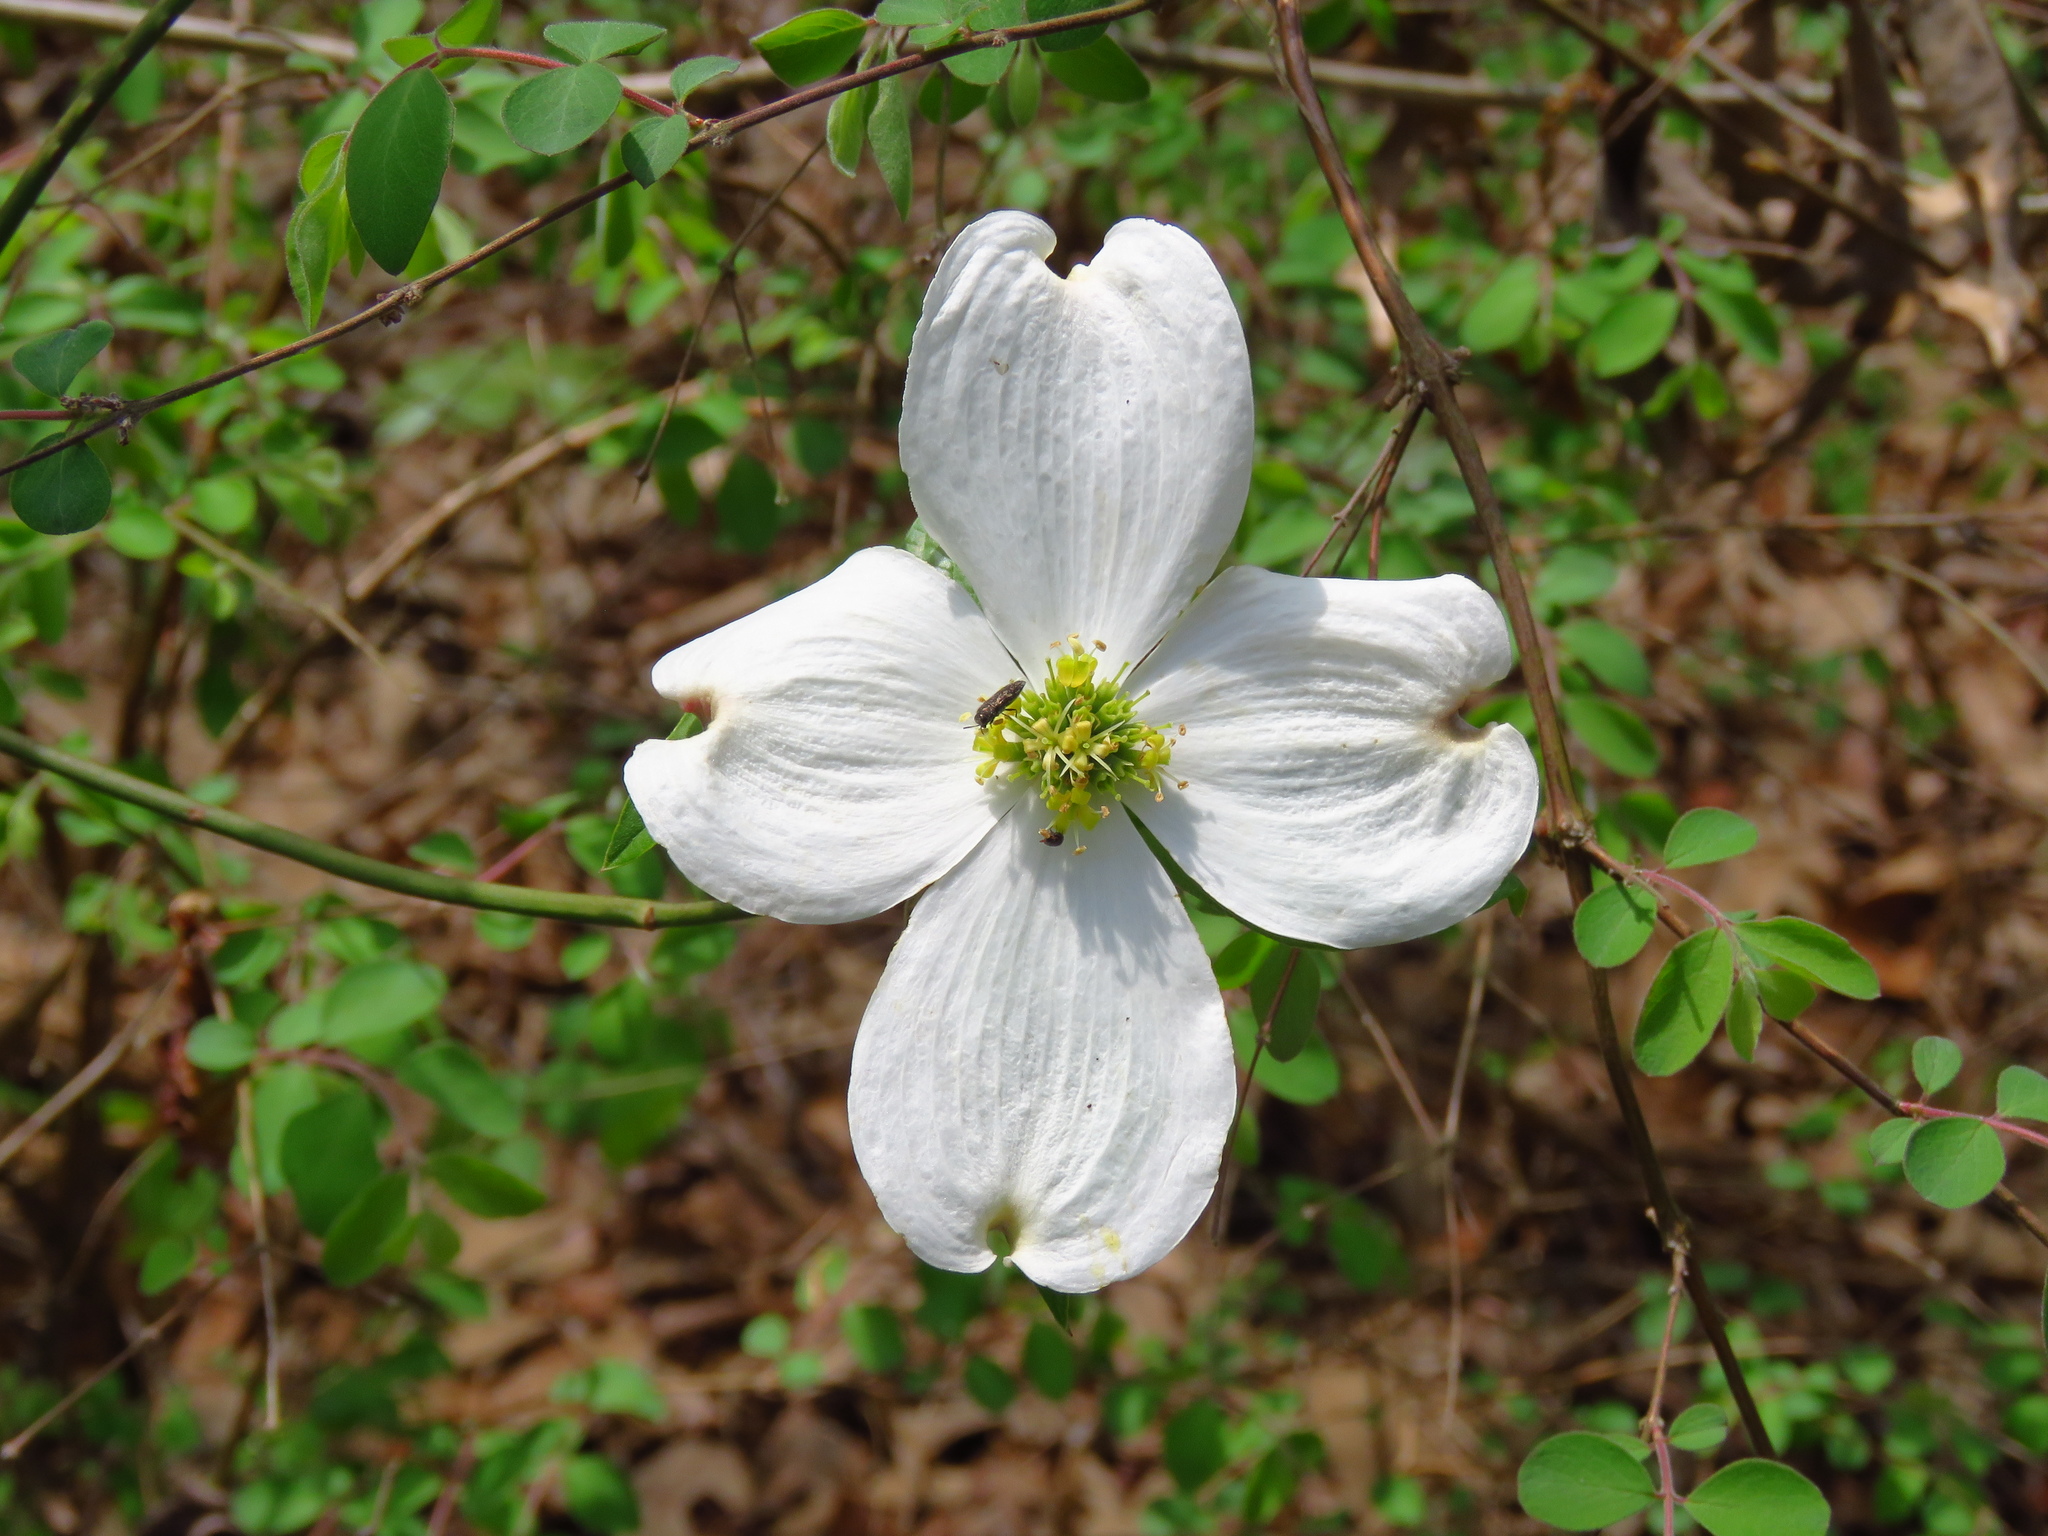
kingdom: Plantae
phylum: Tracheophyta
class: Magnoliopsida
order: Cornales
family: Cornaceae
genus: Cornus
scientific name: Cornus florida
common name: Flowering dogwood
